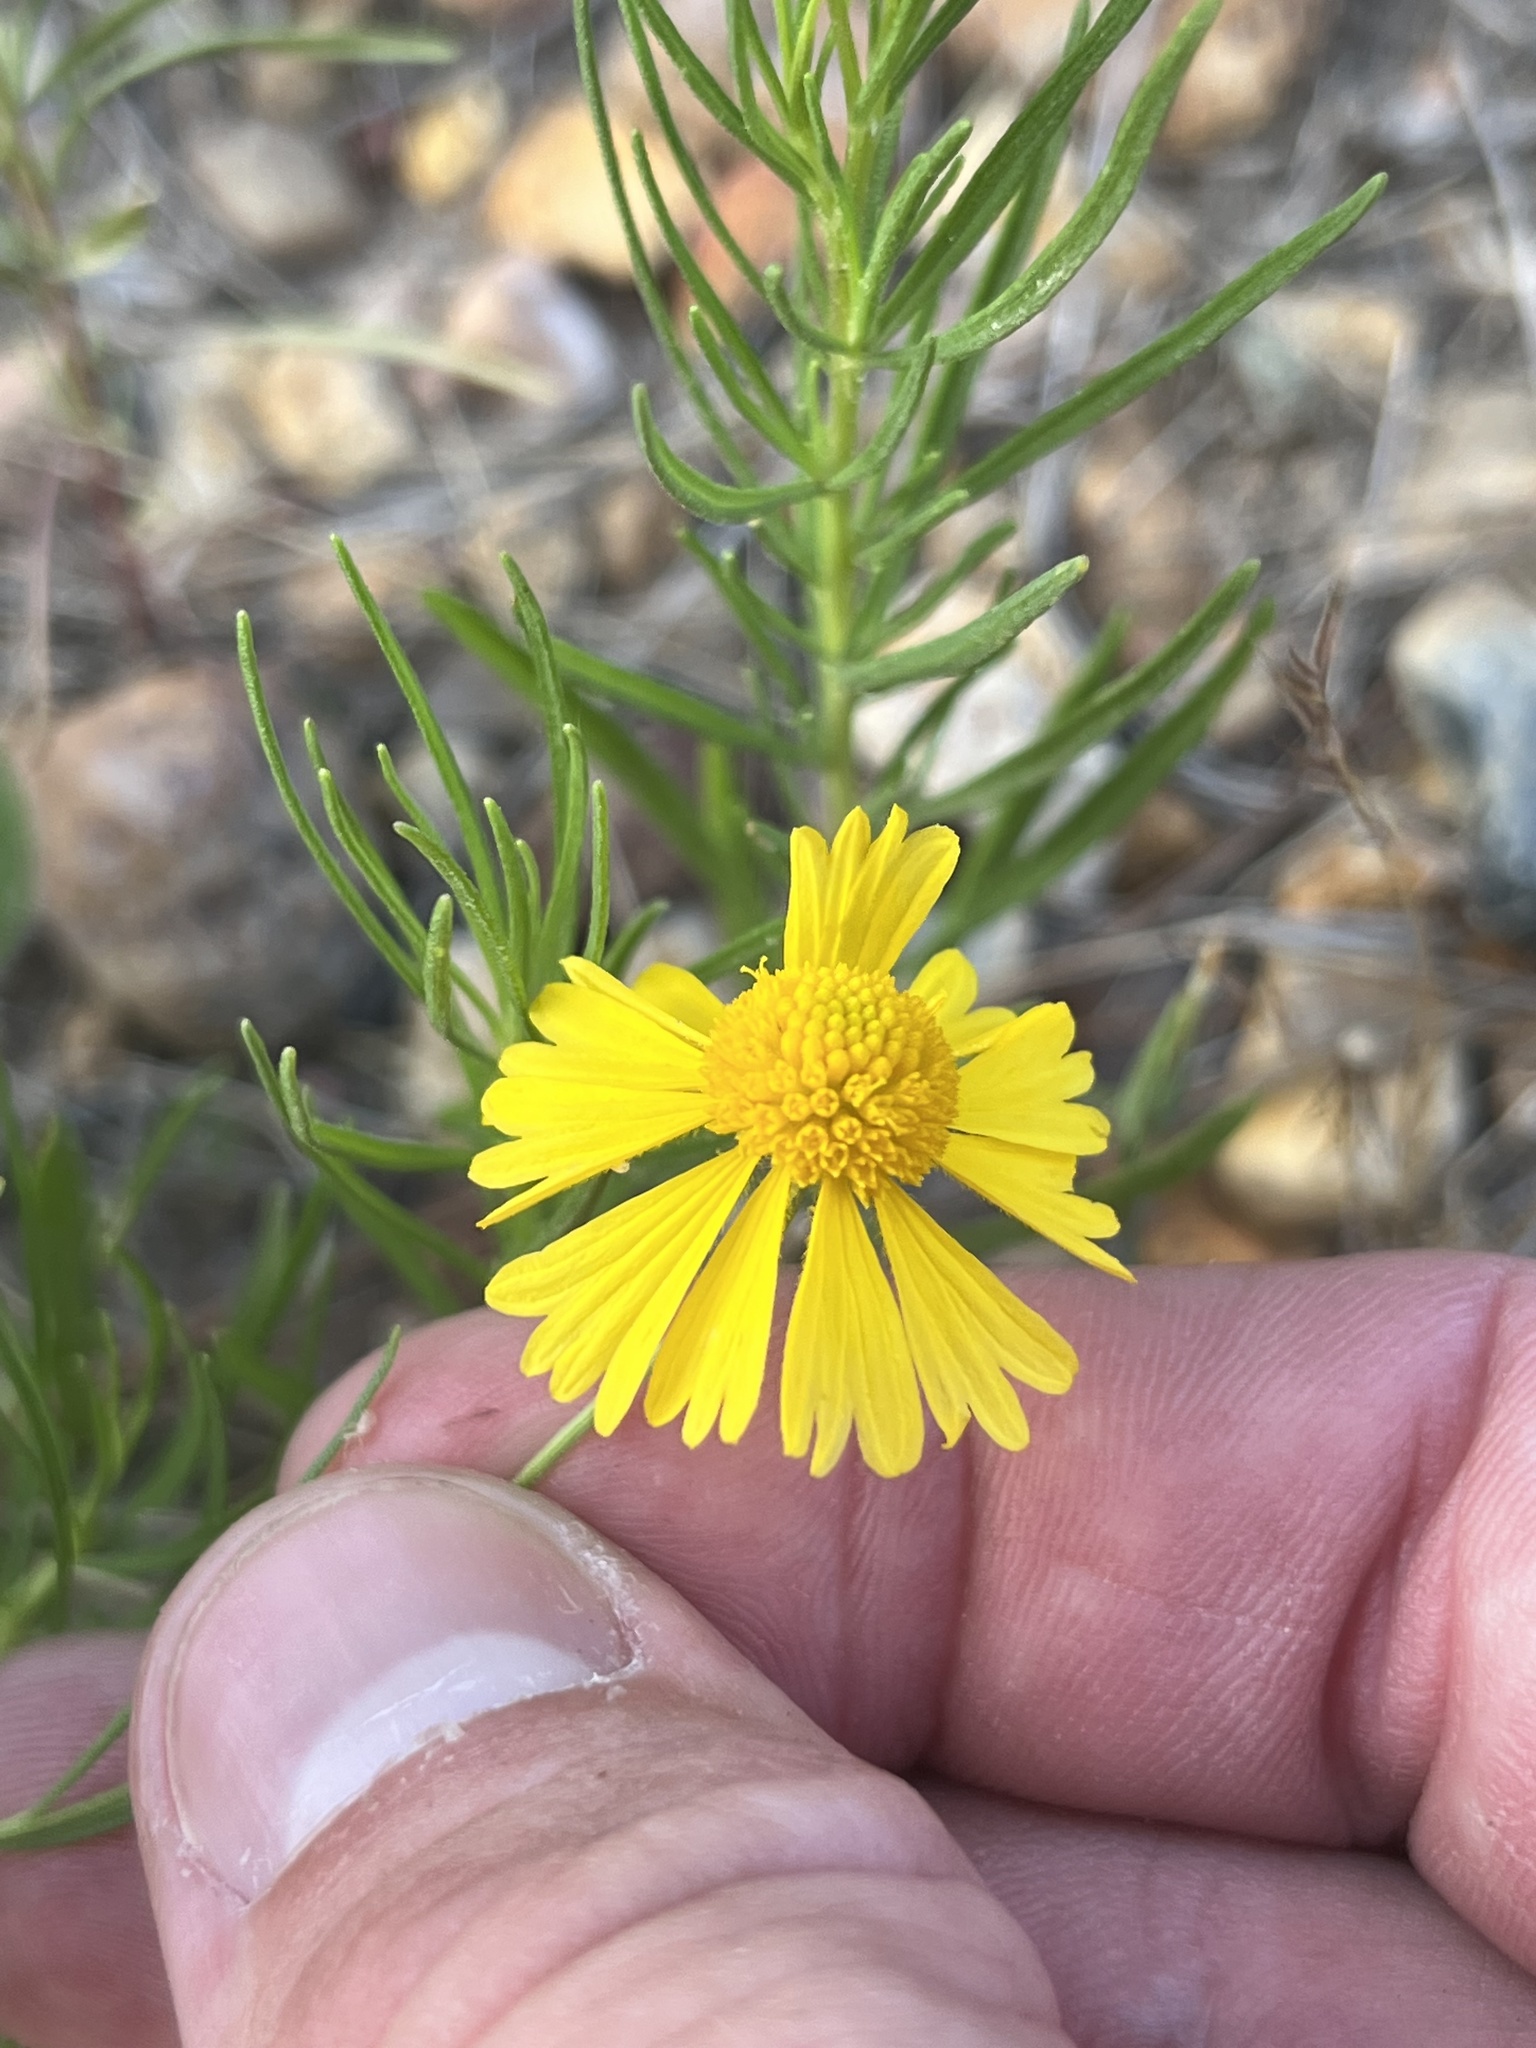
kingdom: Plantae
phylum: Tracheophyta
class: Magnoliopsida
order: Asterales
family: Asteraceae
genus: Helenium
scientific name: Helenium amarum
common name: Bitter sneezeweed
